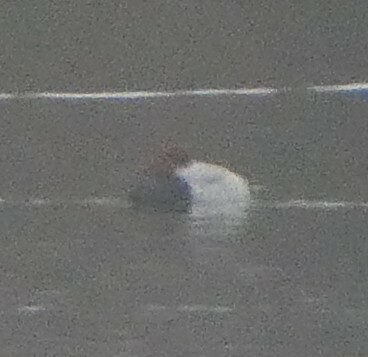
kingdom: Animalia
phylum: Chordata
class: Aves
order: Anseriformes
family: Anatidae
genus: Aythya
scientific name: Aythya ferina
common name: Common pochard
